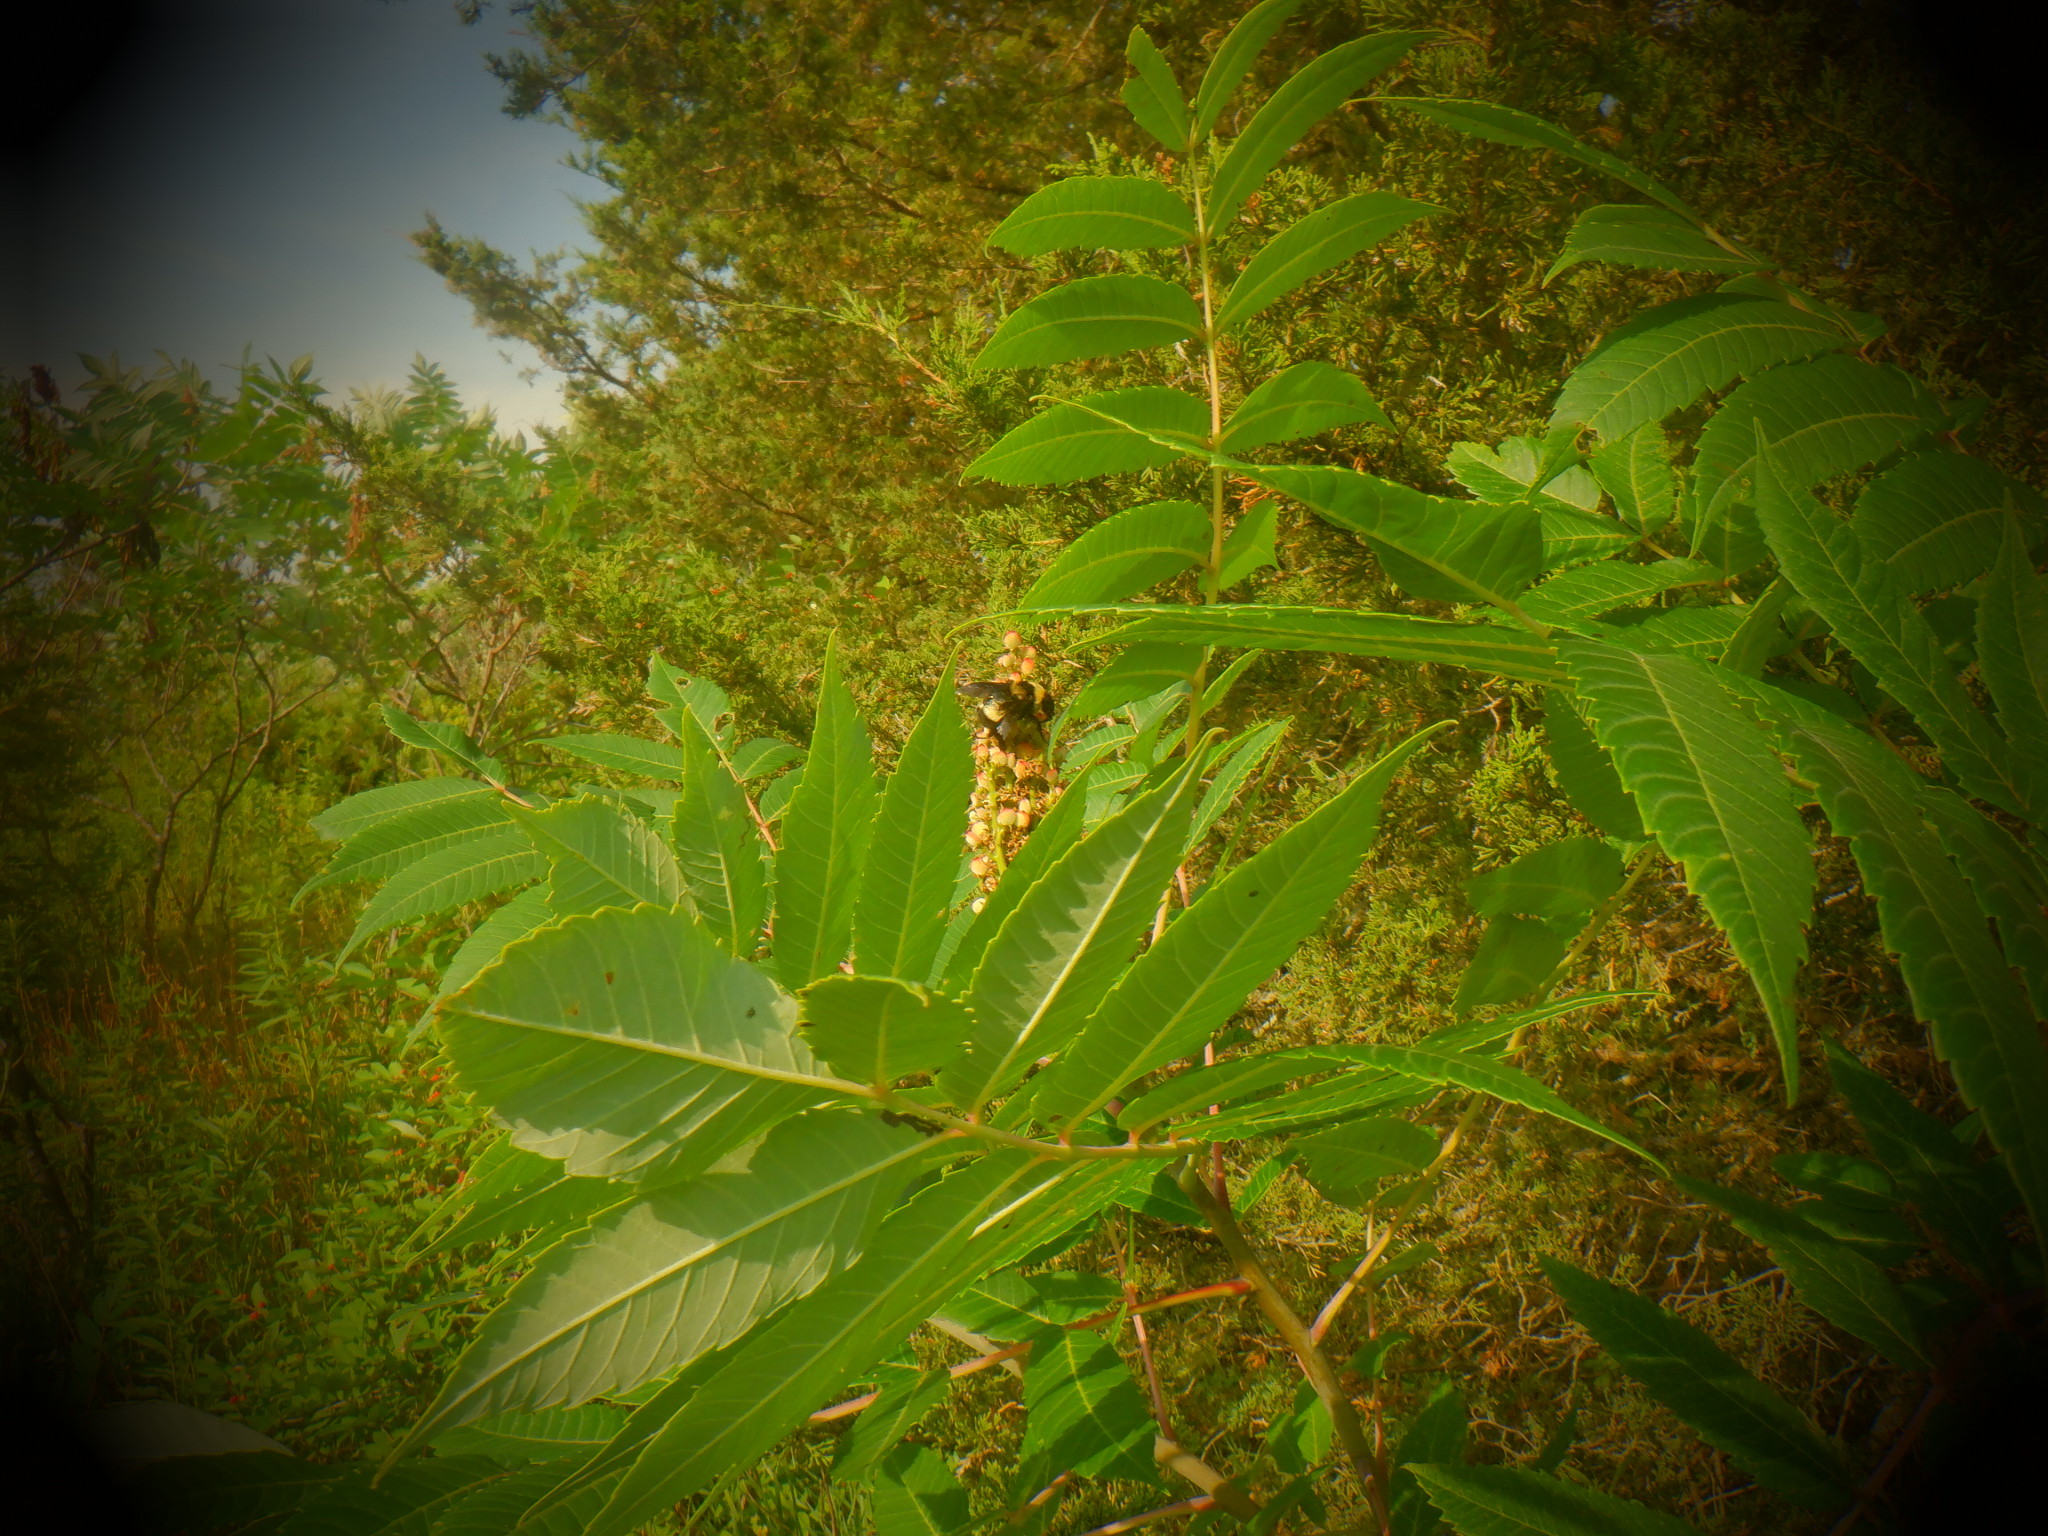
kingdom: Animalia
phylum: Arthropoda
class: Insecta
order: Hymenoptera
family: Apidae
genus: Bombus
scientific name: Bombus auricomus
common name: Black and gold bumble bee
